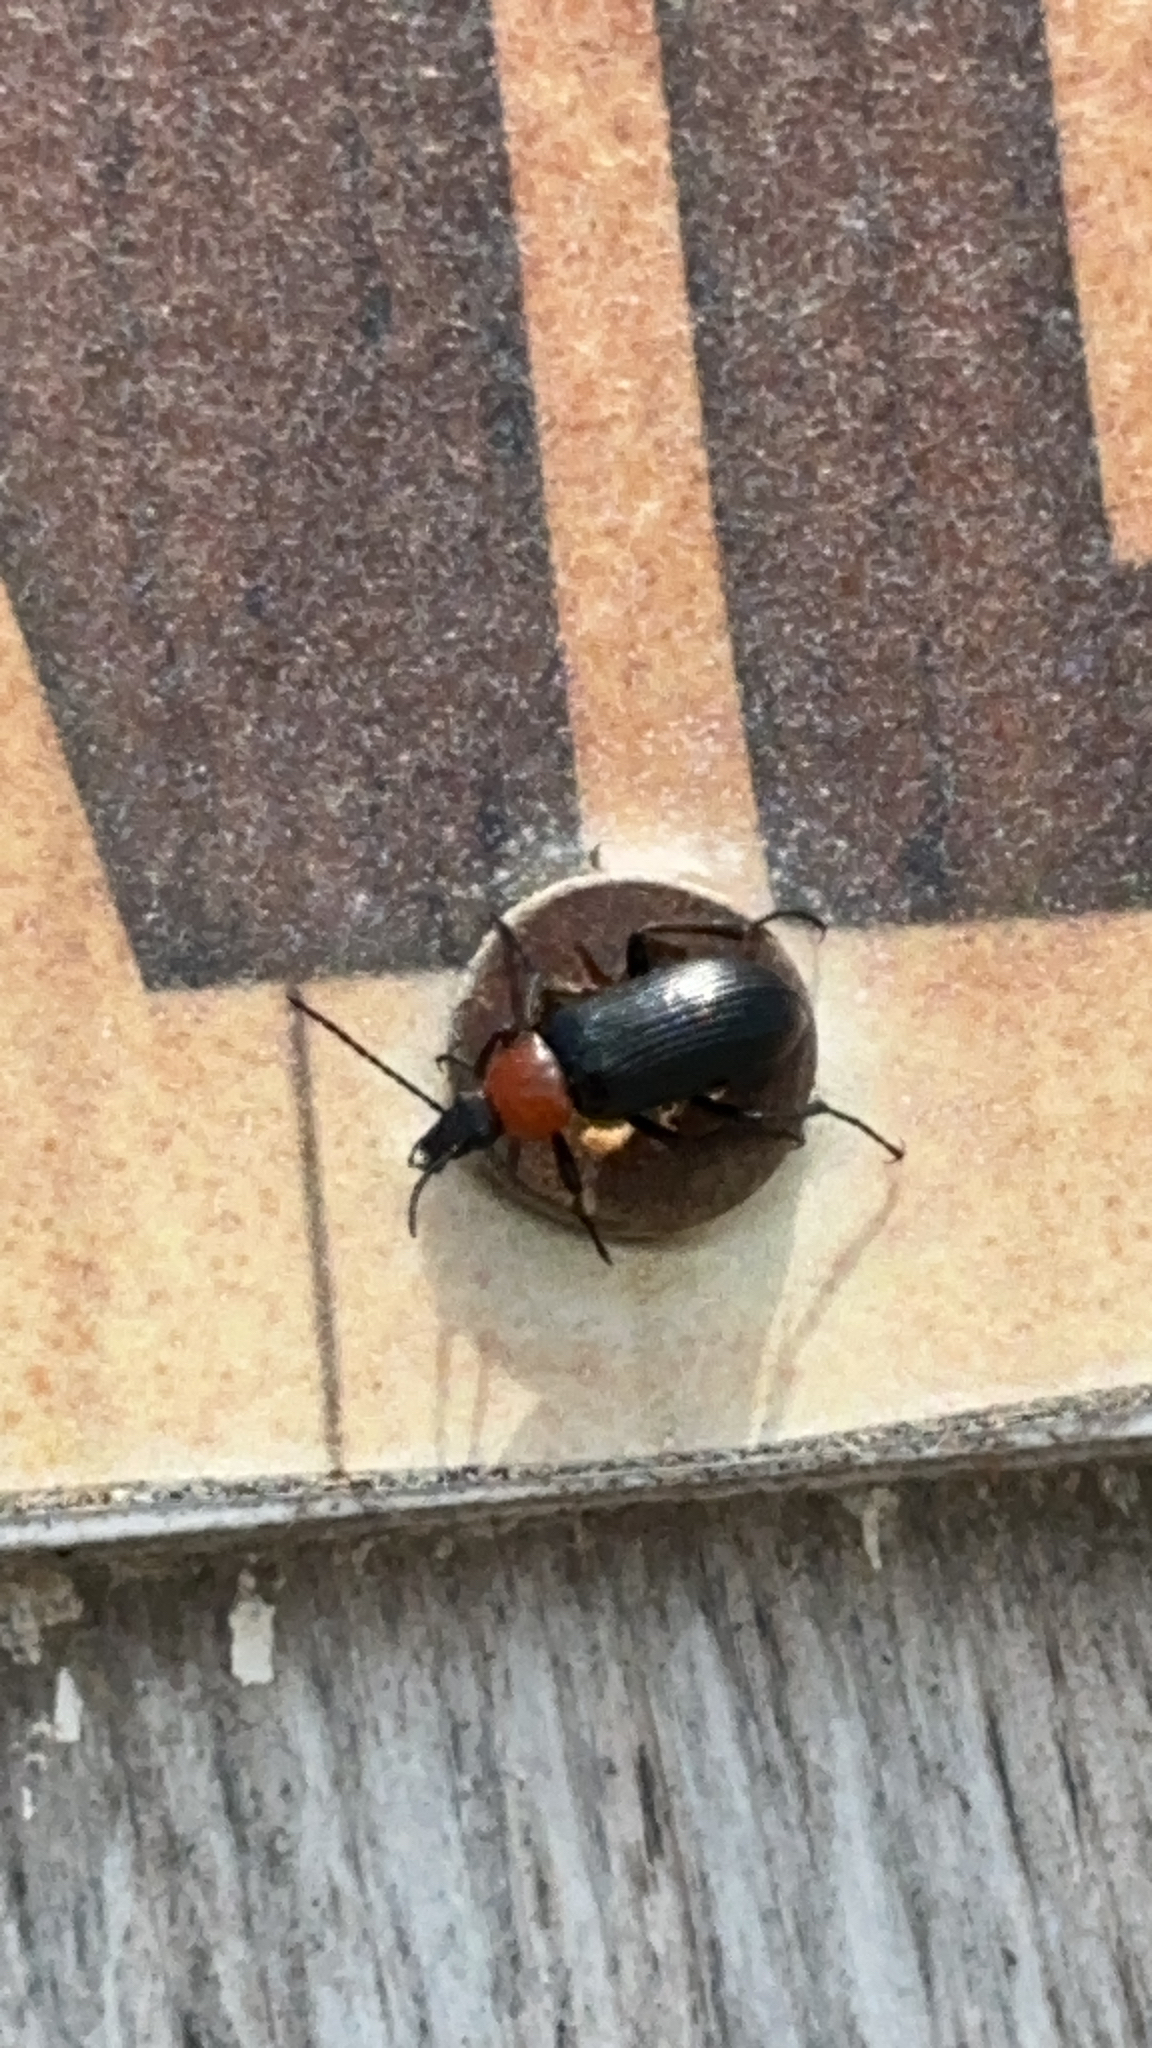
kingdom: Animalia
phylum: Arthropoda
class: Insecta
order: Coleoptera
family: Tenebrionidae
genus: Heliotaurus
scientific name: Heliotaurus ruficollis
